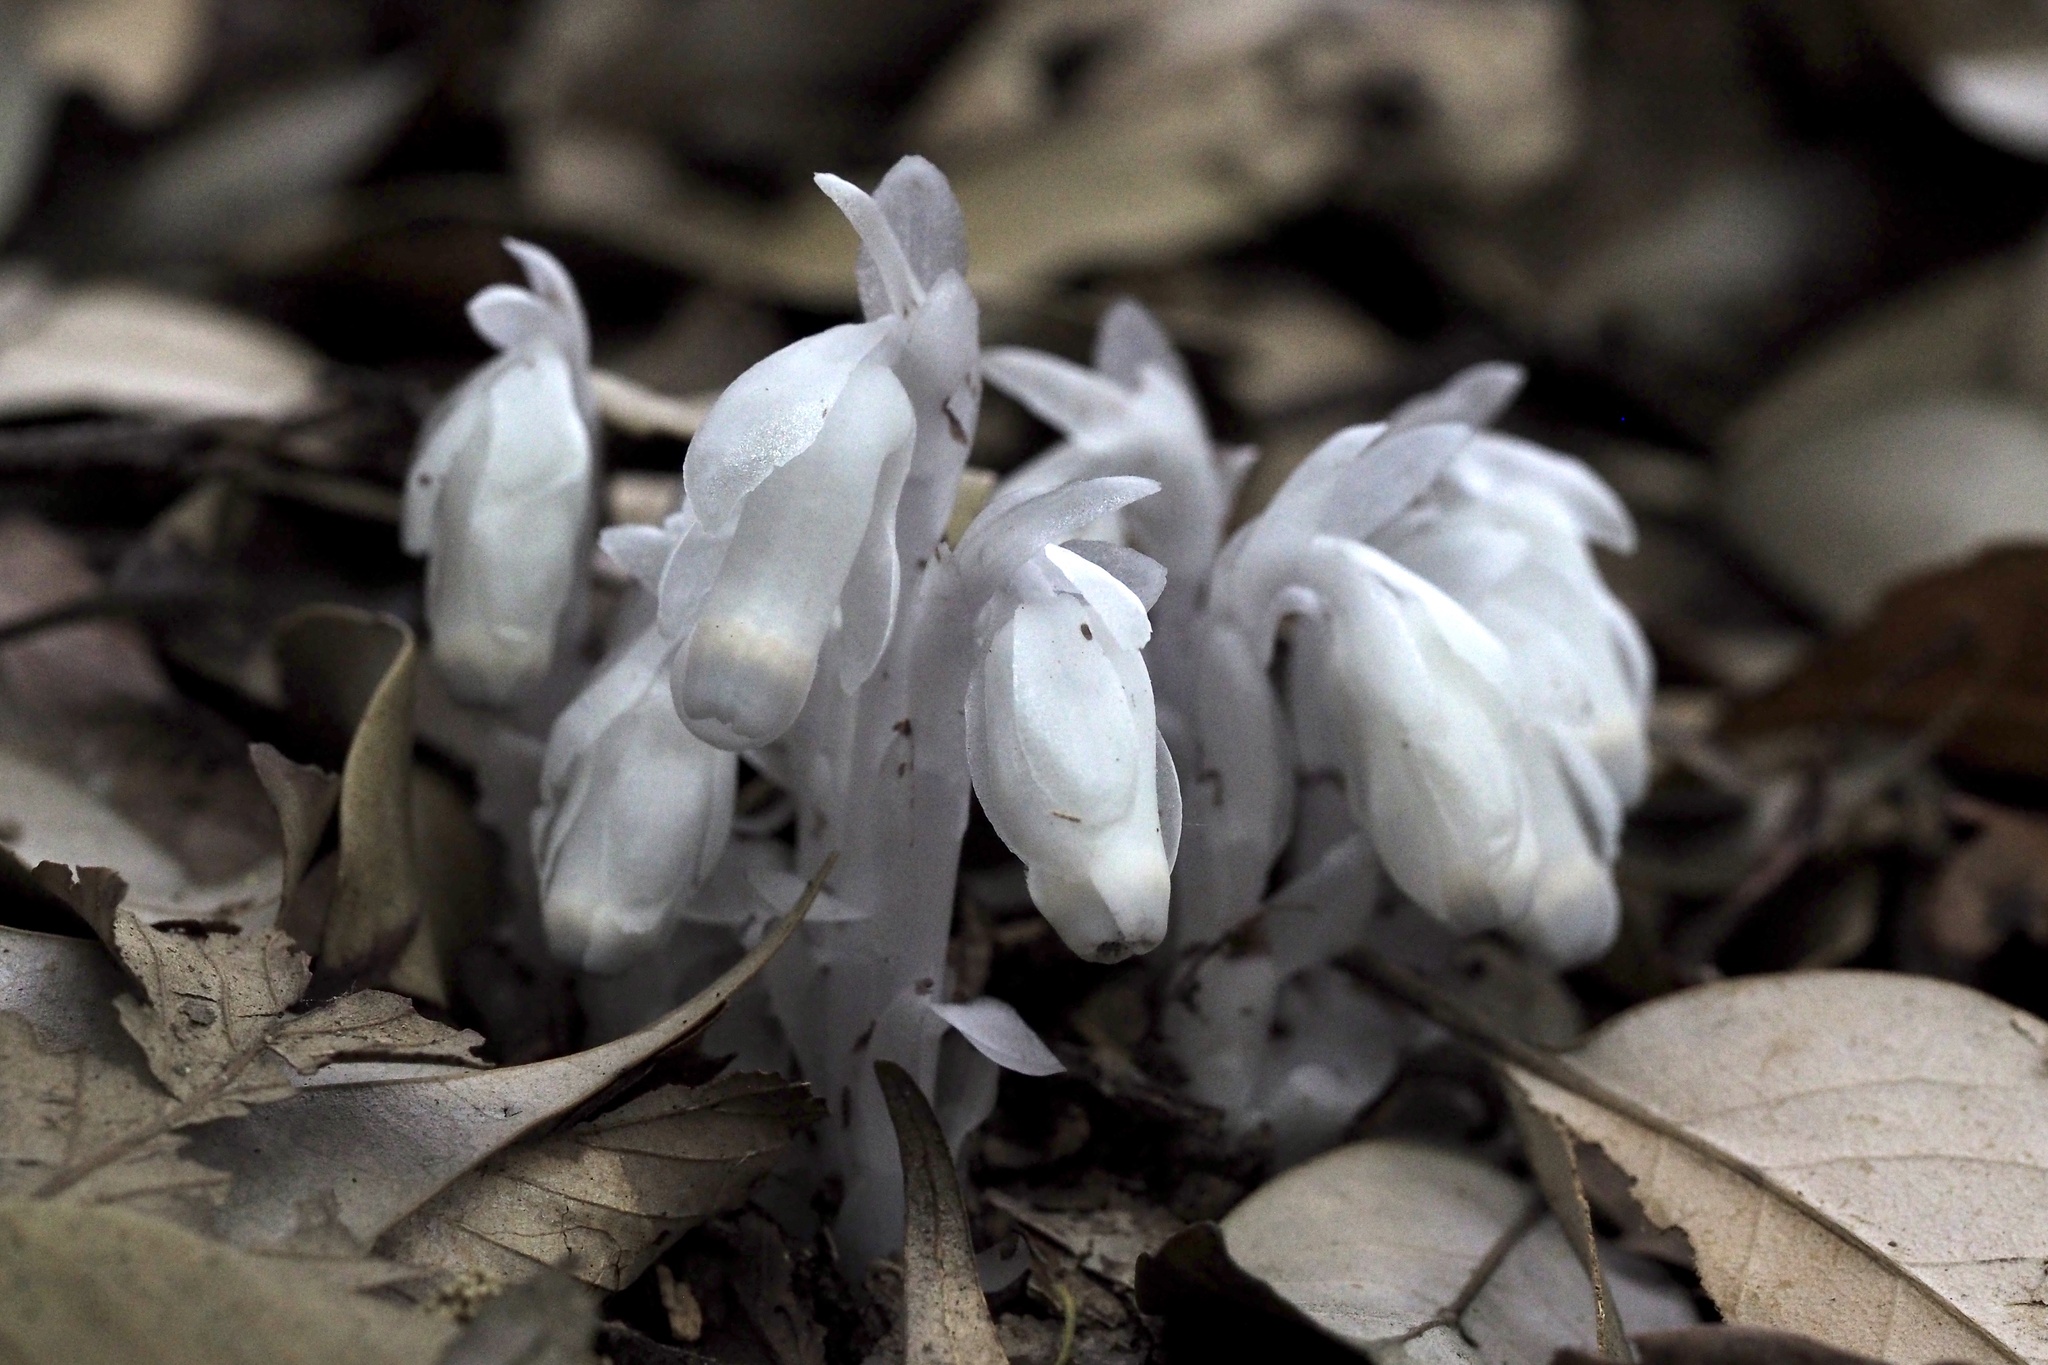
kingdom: Plantae
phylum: Tracheophyta
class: Magnoliopsida
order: Ericales
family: Ericaceae
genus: Monotropastrum
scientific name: Monotropastrum humile
